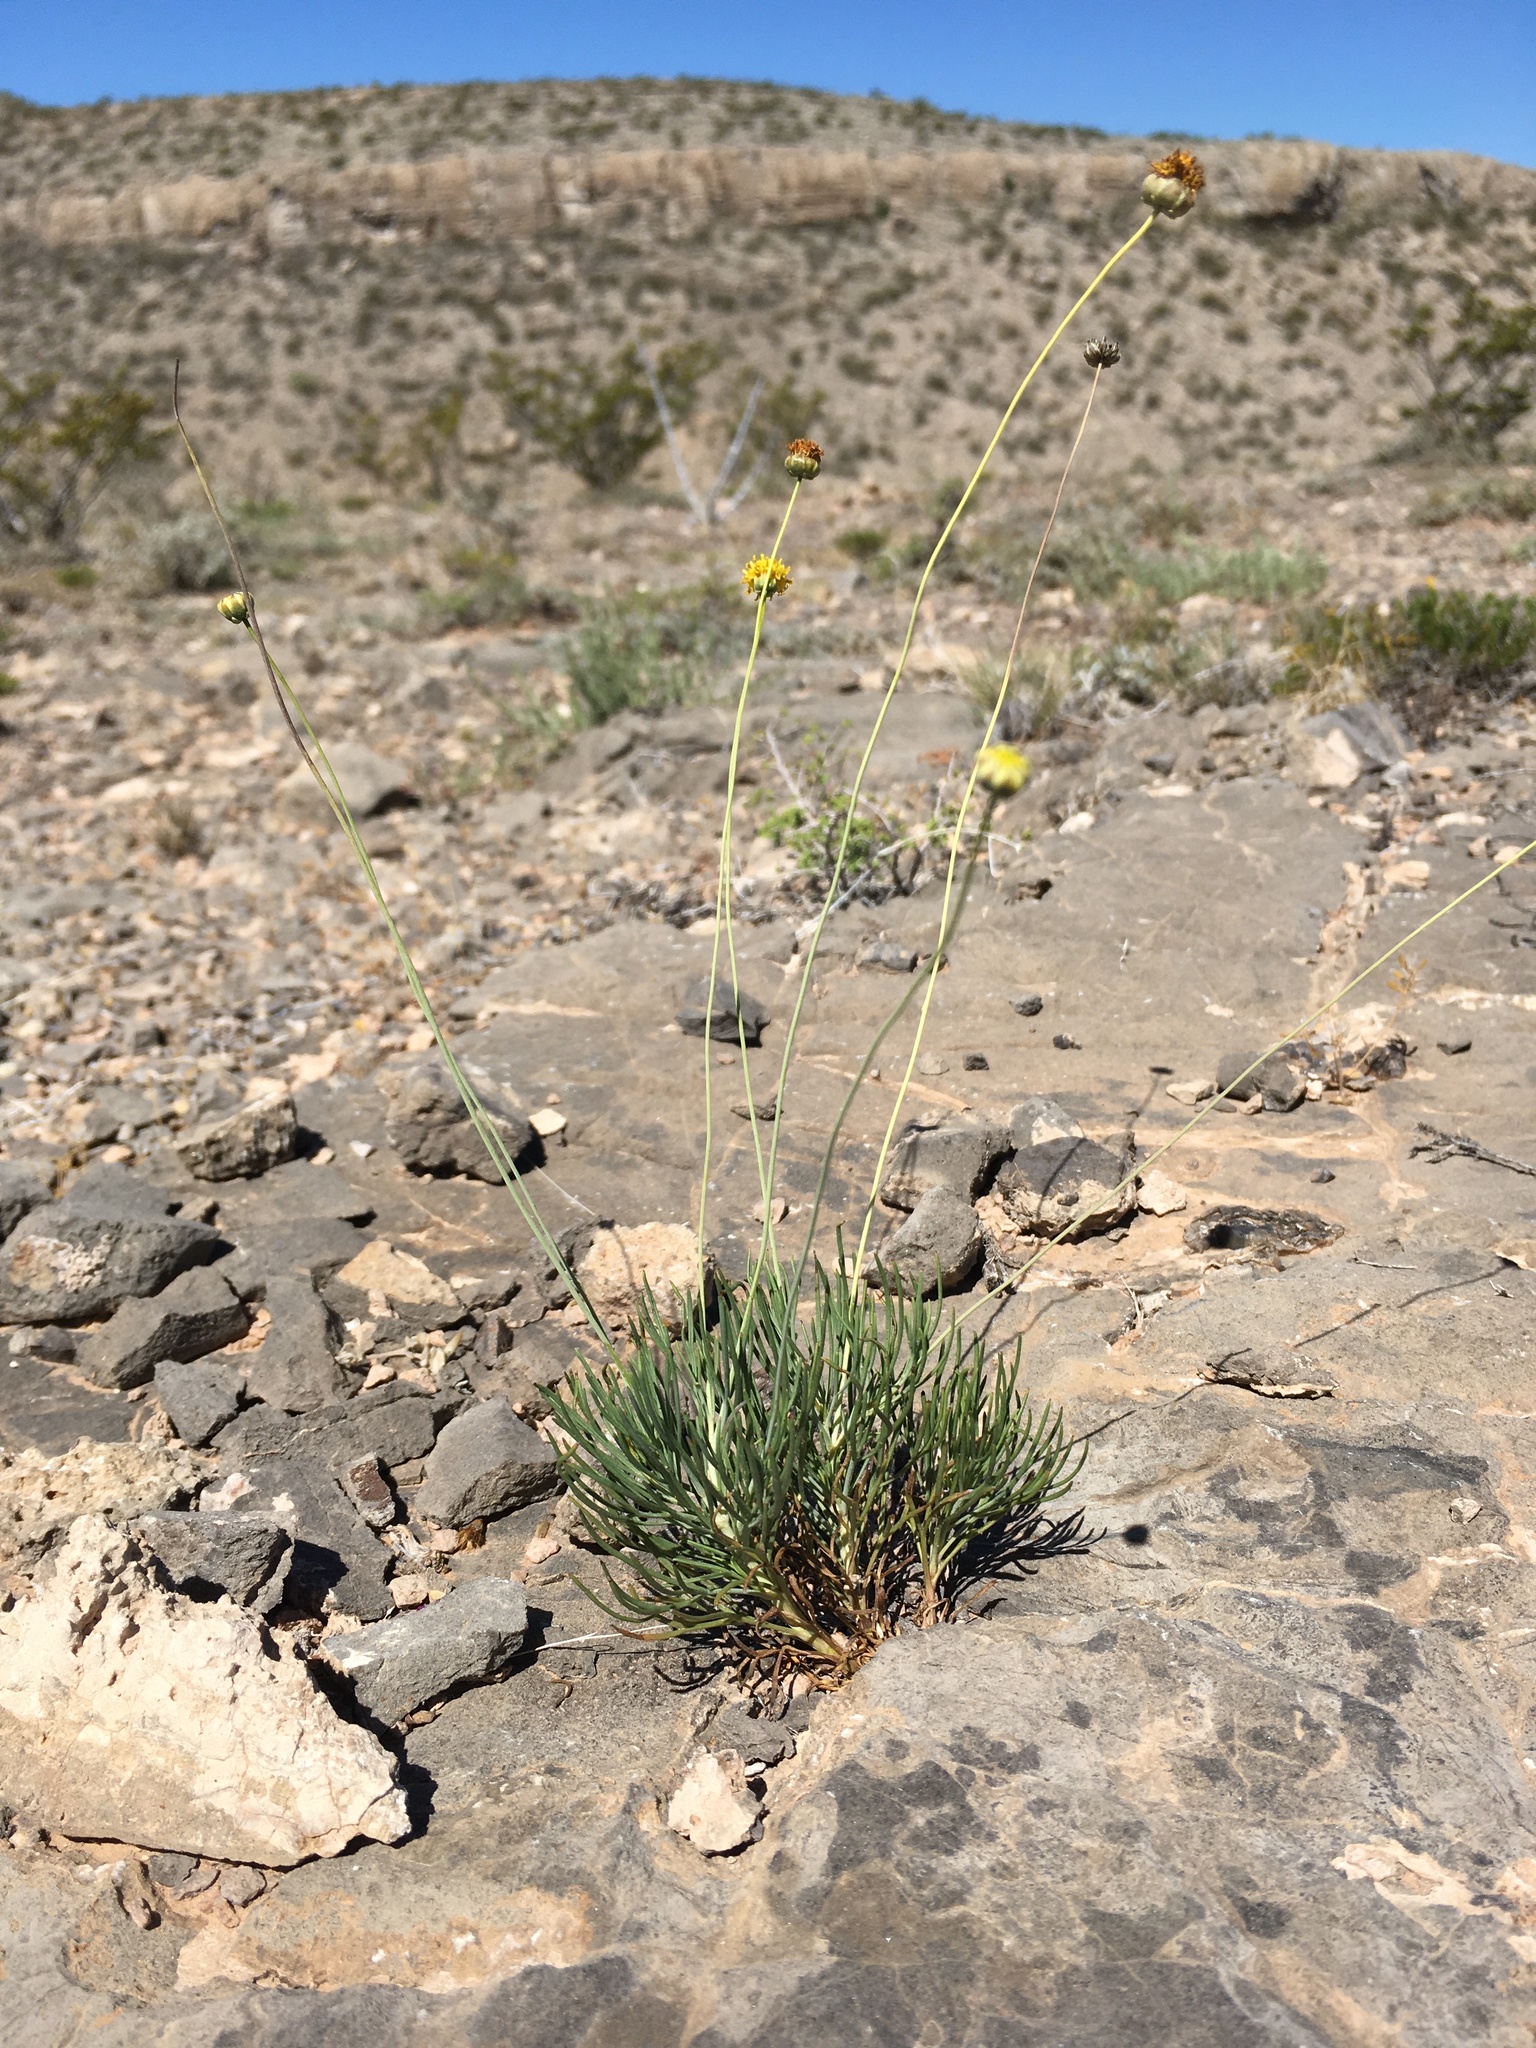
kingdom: Plantae
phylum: Tracheophyta
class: Magnoliopsida
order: Asterales
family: Asteraceae
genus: Thelesperma
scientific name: Thelesperma longipes
